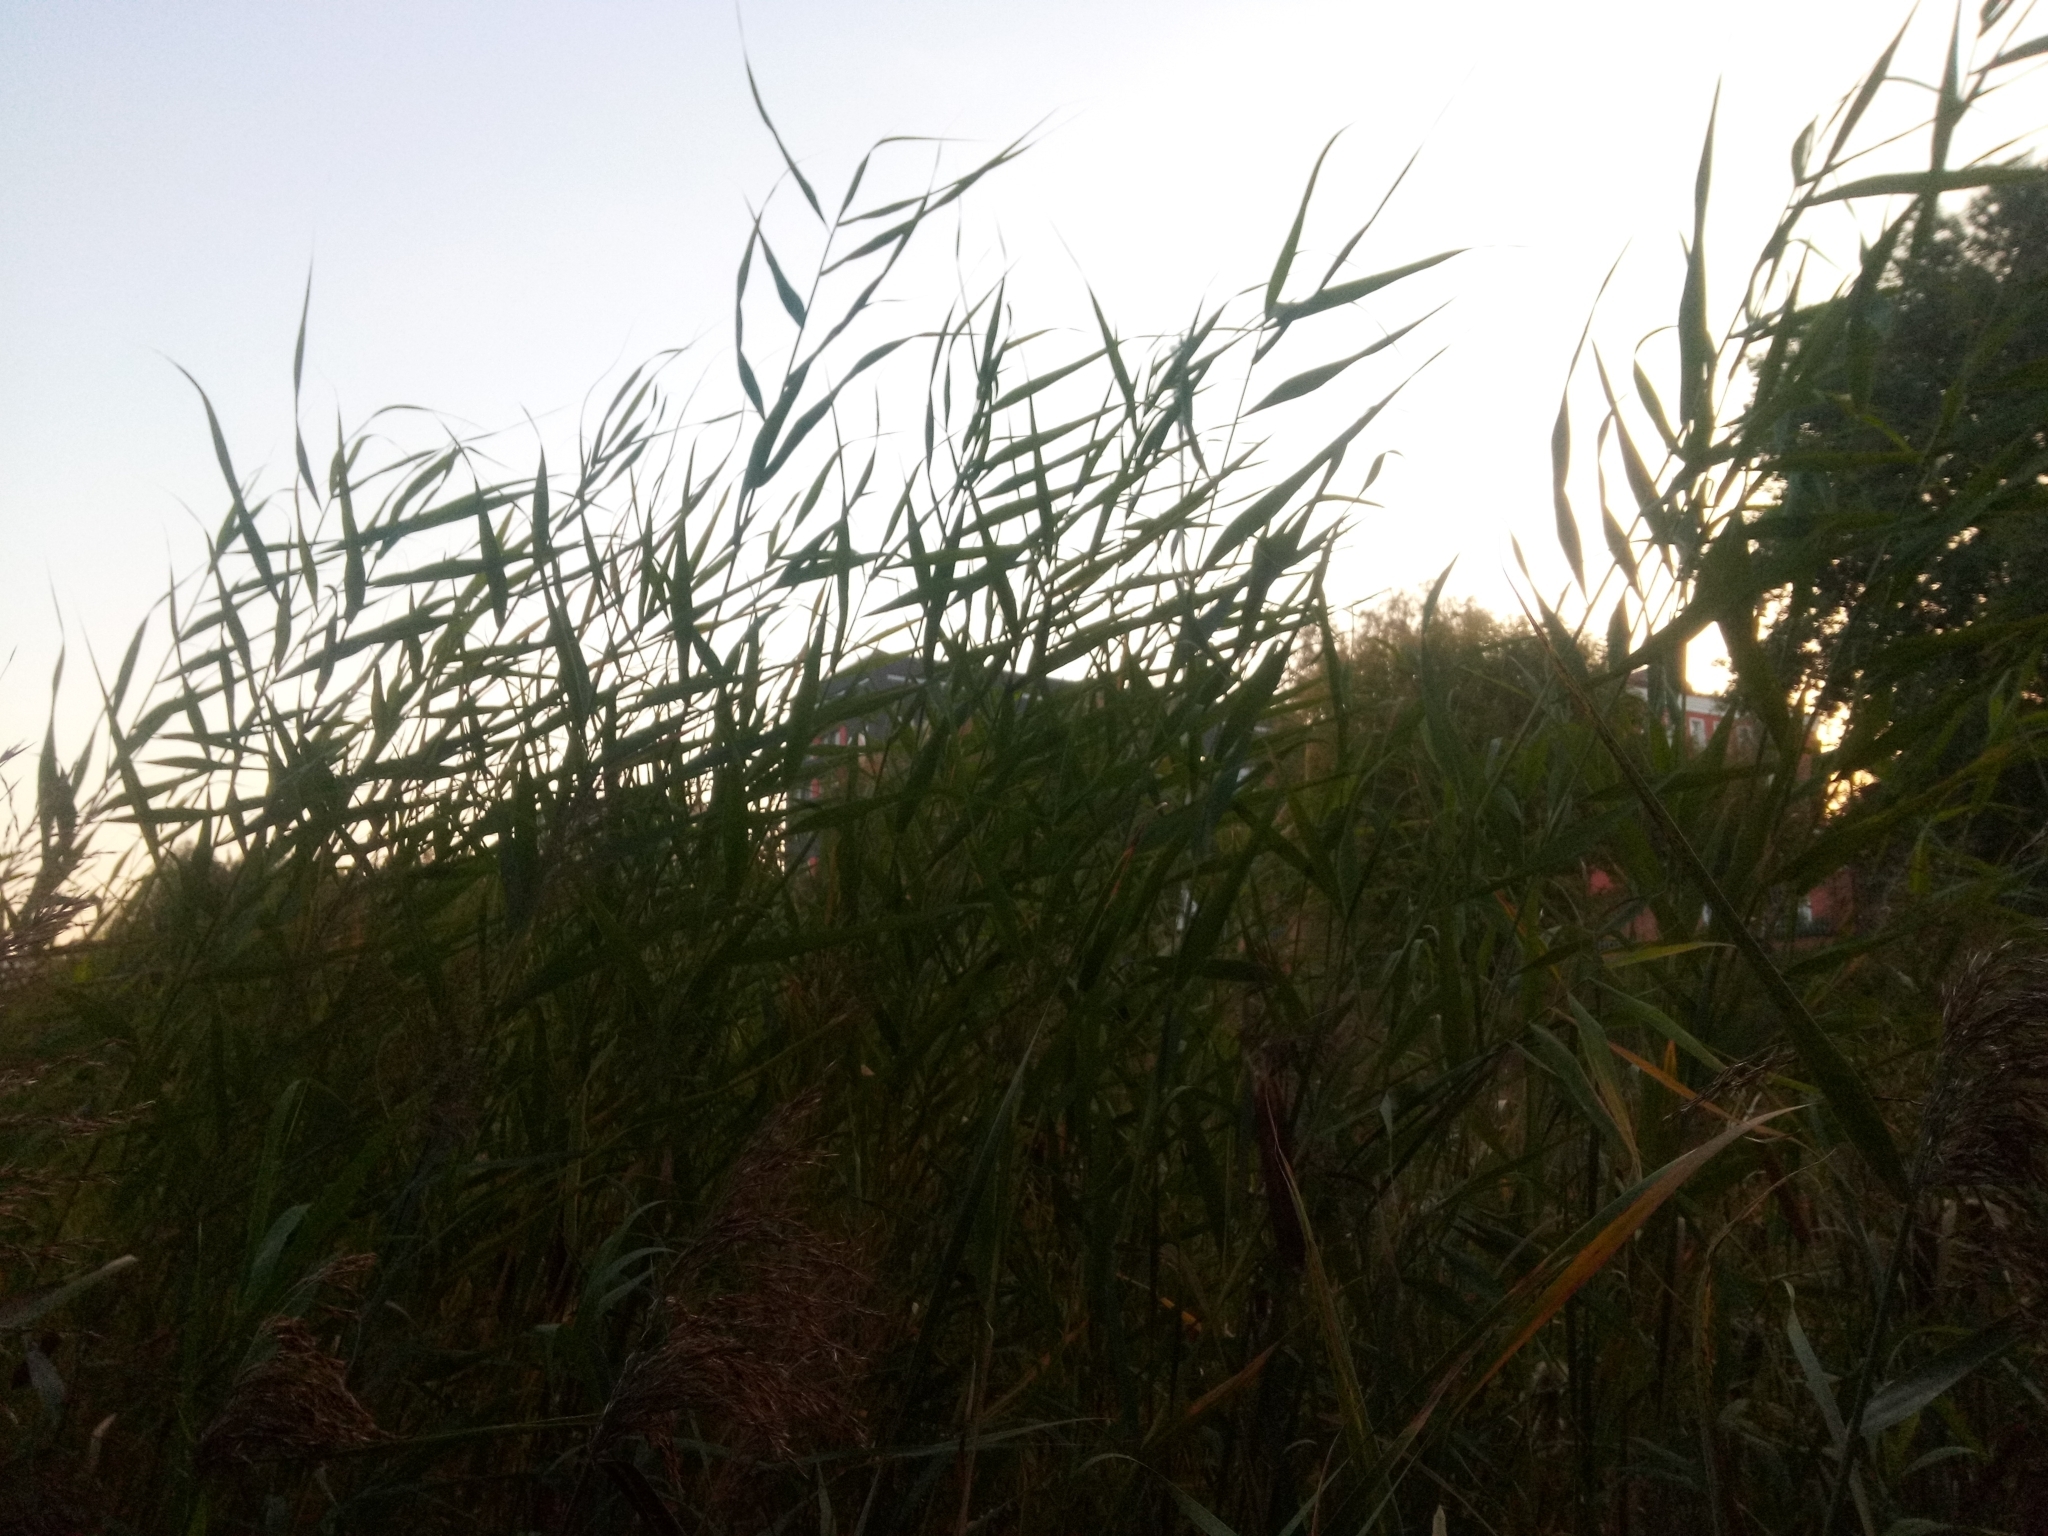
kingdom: Plantae
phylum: Tracheophyta
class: Liliopsida
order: Poales
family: Poaceae
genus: Phragmites
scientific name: Phragmites australis
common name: Common reed
